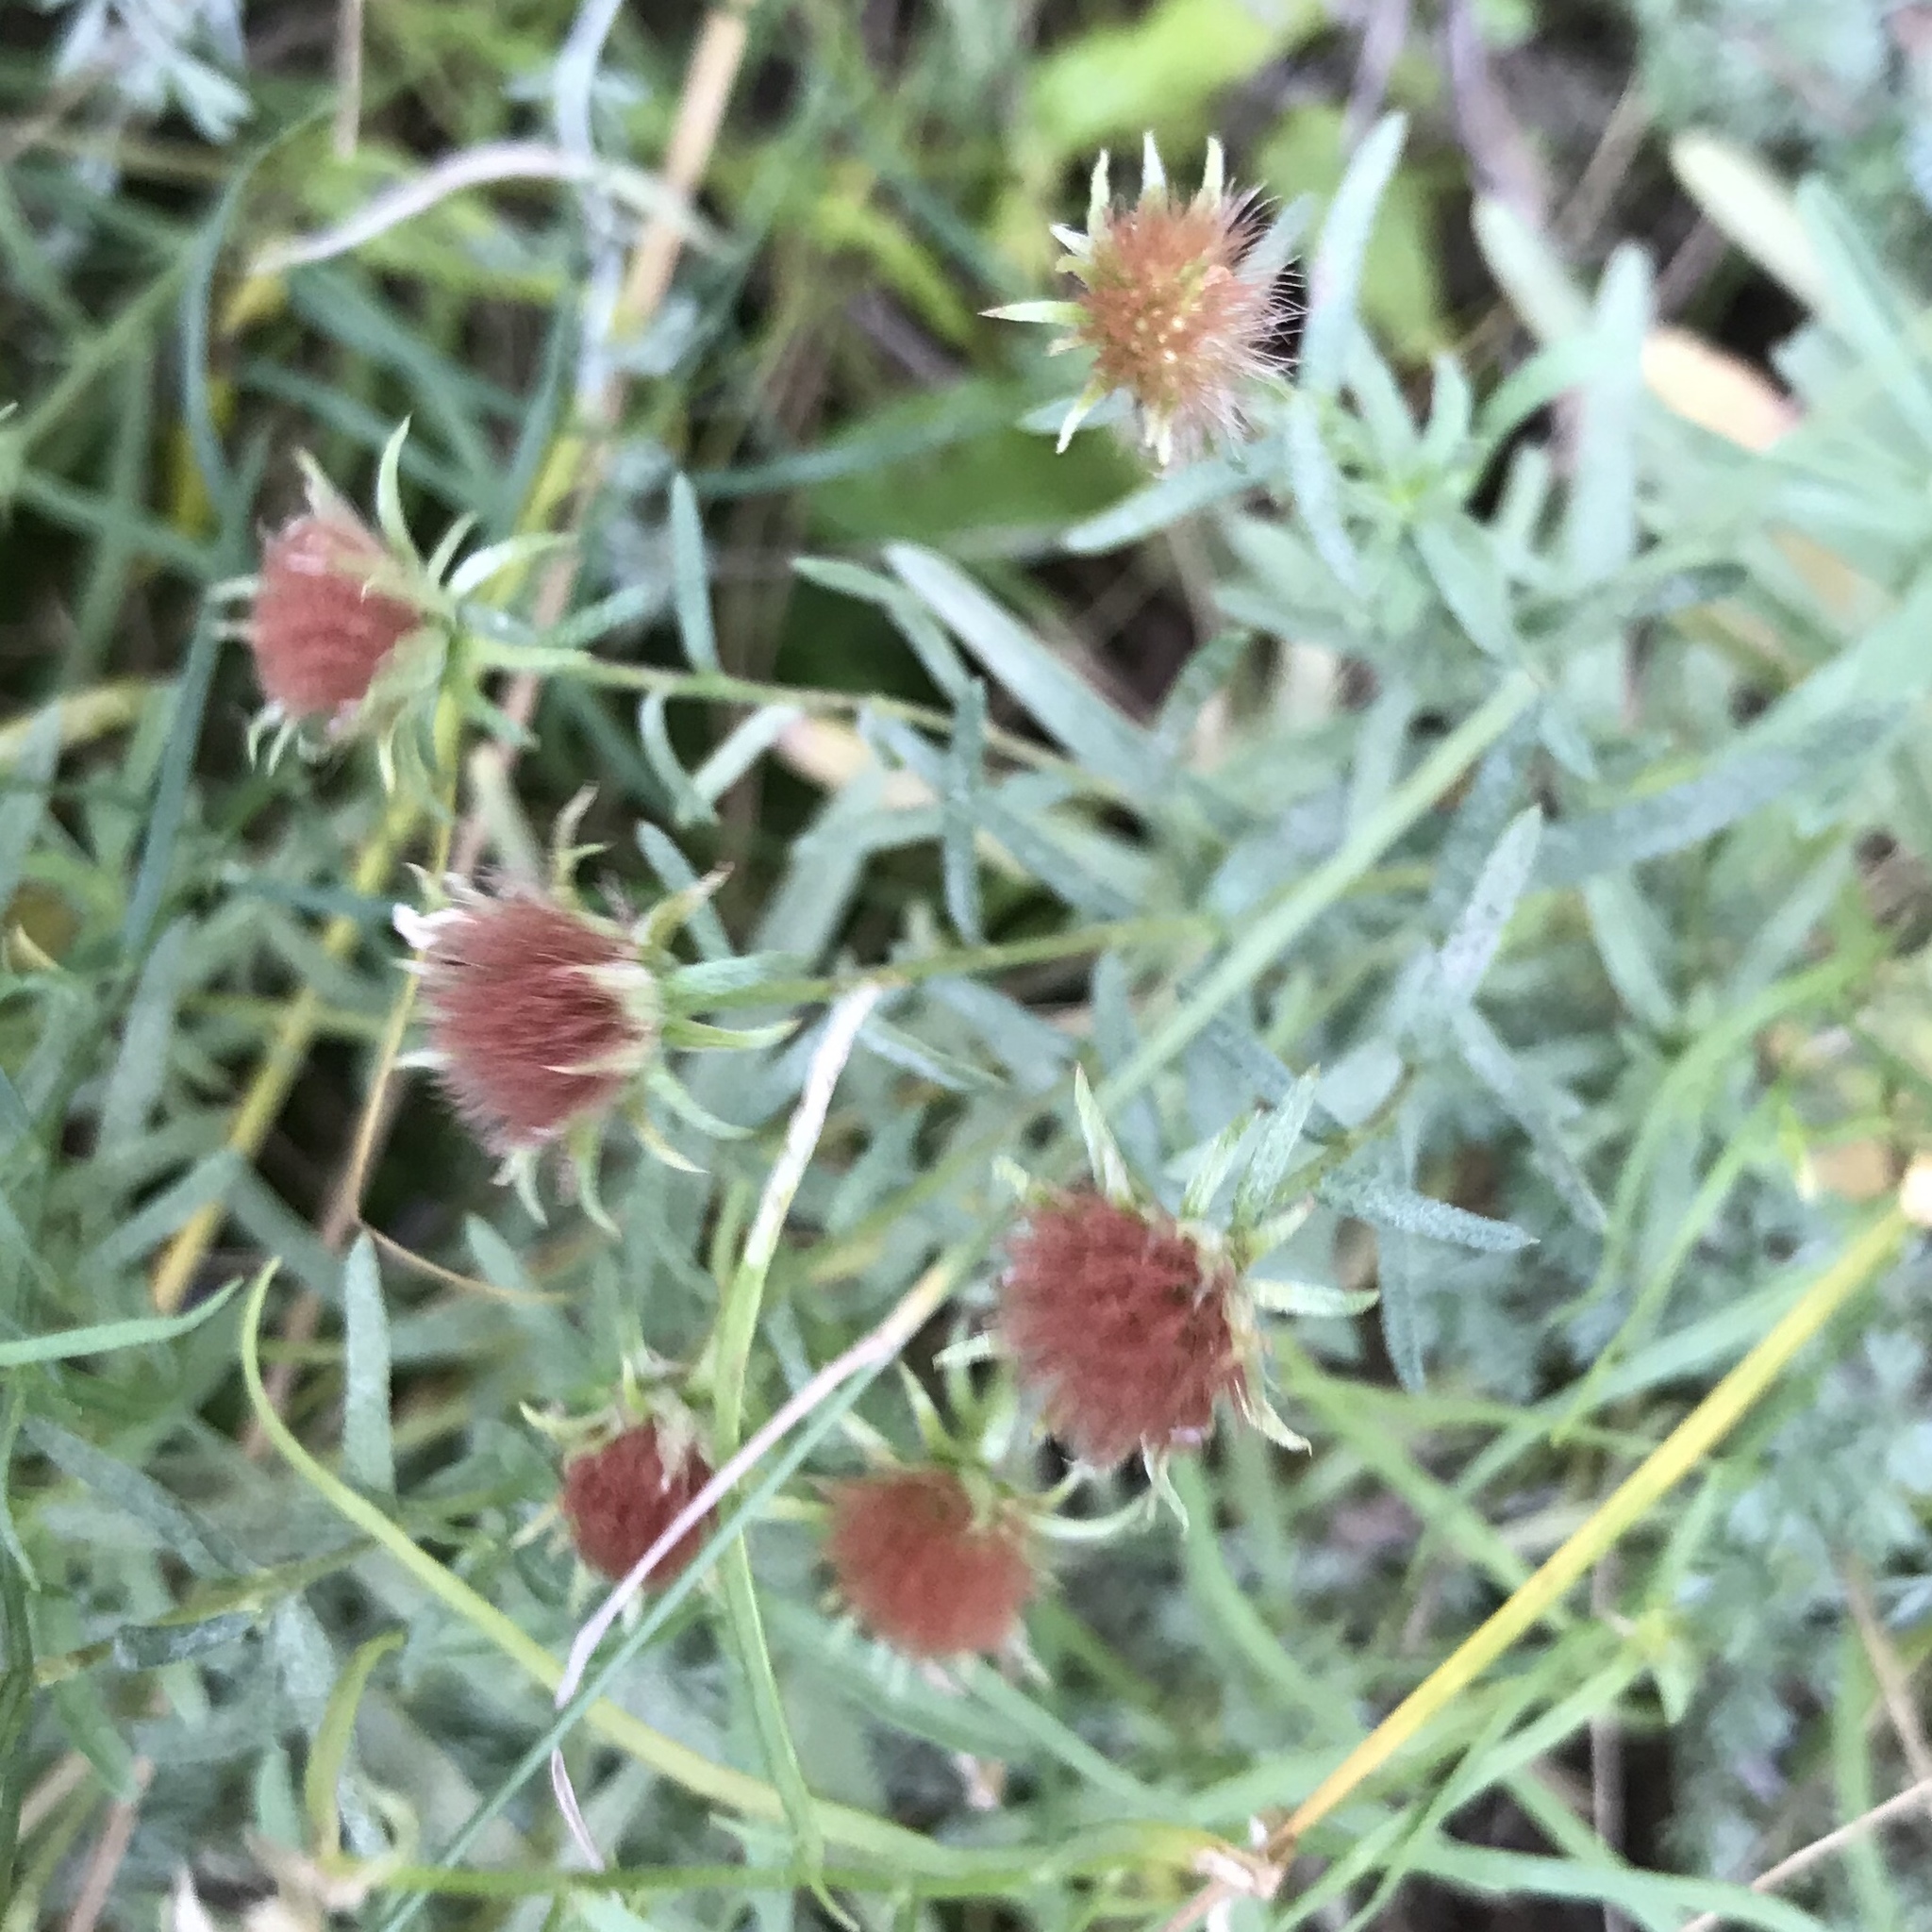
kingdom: Plantae
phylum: Tracheophyta
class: Magnoliopsida
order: Asterales
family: Asteraceae
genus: Eurybia
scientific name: Eurybia sibirica
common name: Arctic aster
